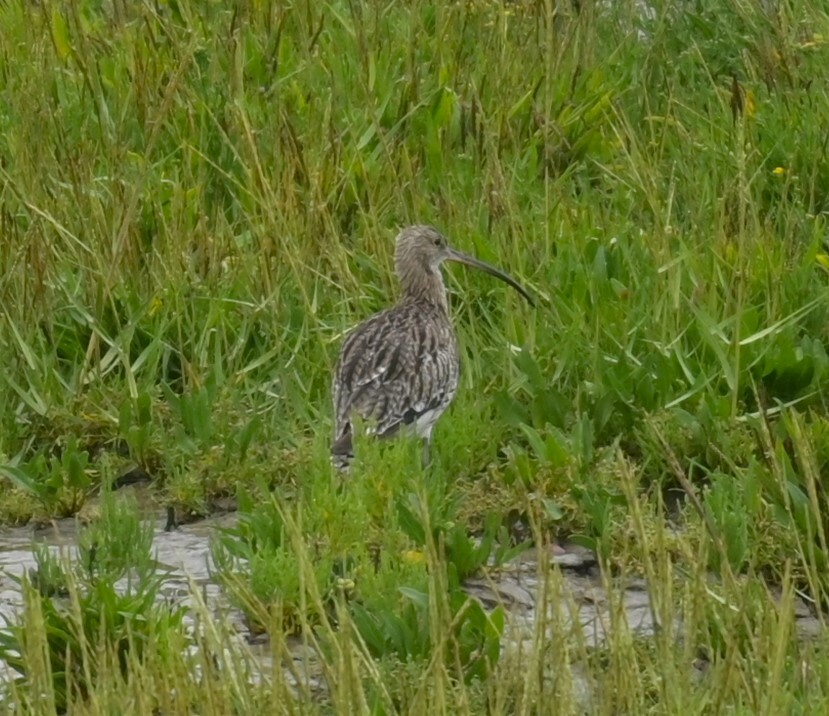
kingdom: Animalia
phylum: Chordata
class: Aves
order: Charadriiformes
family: Scolopacidae
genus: Numenius
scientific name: Numenius arquata
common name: Eurasian curlew
